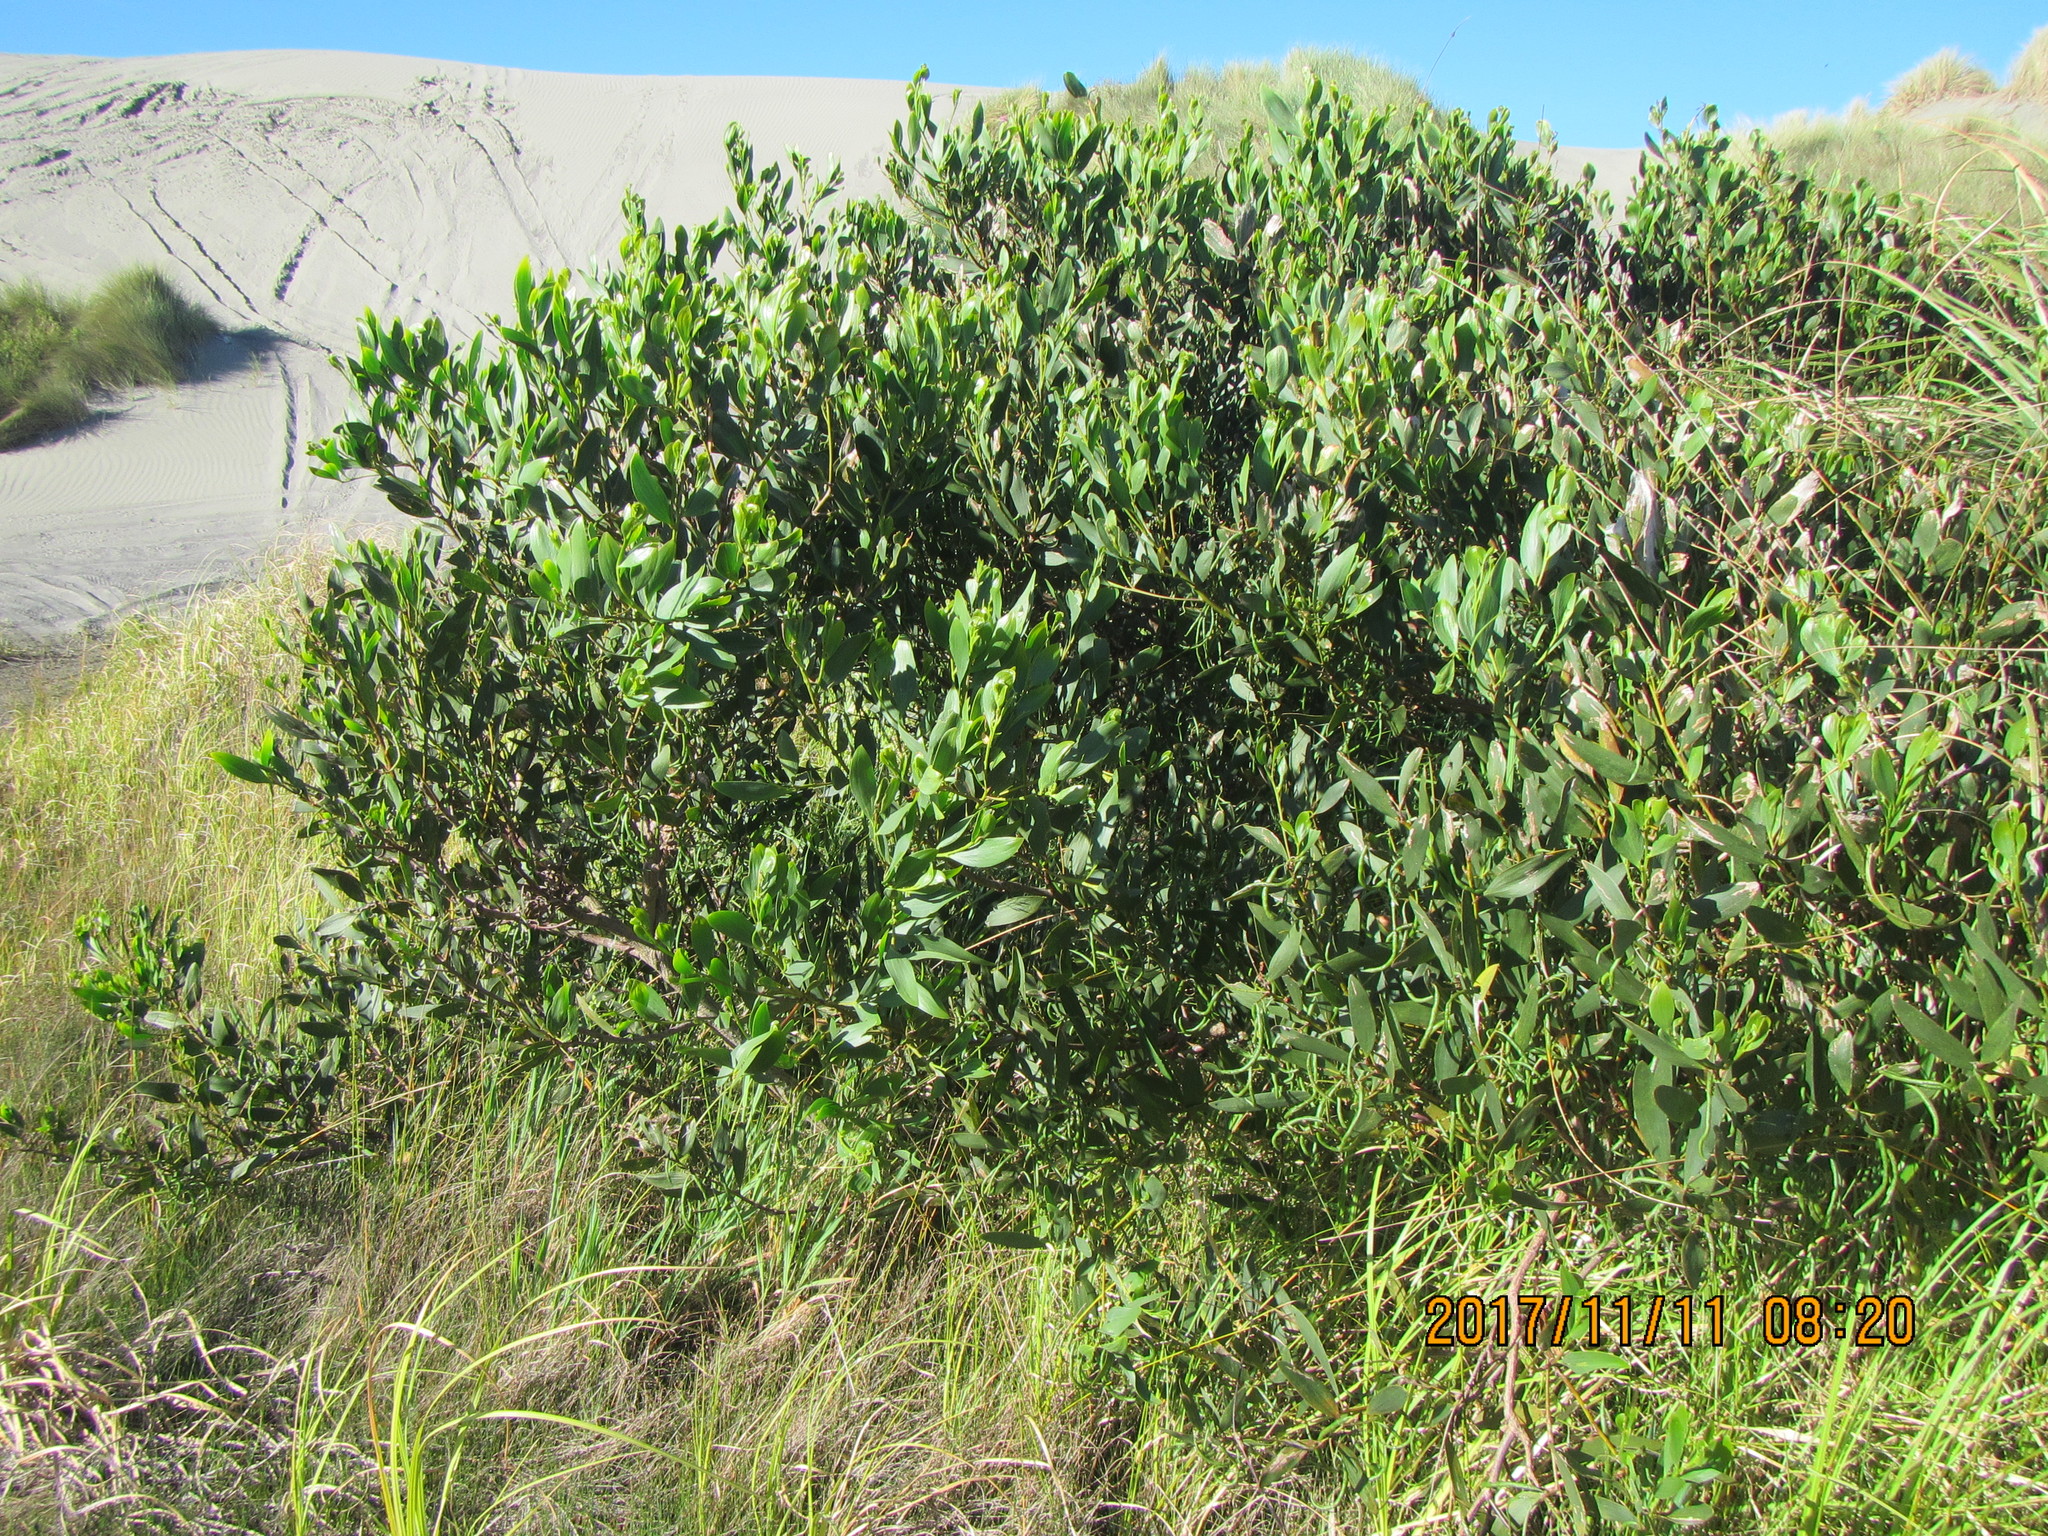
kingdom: Plantae
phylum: Tracheophyta
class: Magnoliopsida
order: Fabales
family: Fabaceae
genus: Acacia
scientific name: Acacia longifolia
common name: Sydney golden wattle
